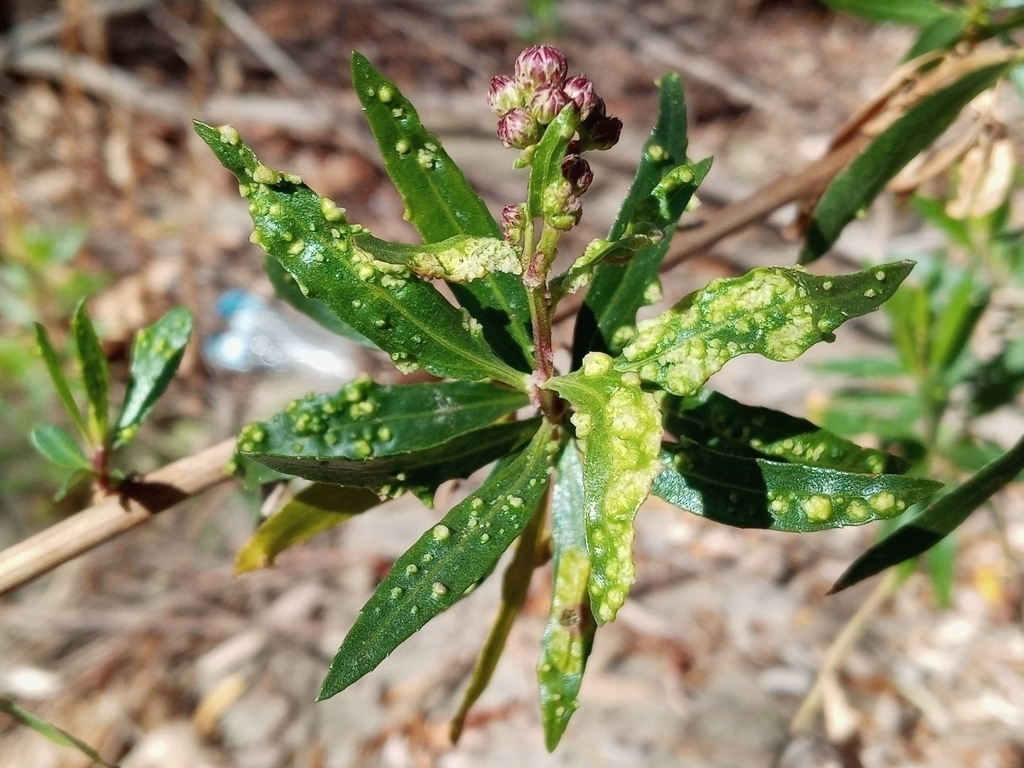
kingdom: Animalia
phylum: Arthropoda
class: Arachnida
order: Trombidiformes
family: Eriophyidae
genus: Aceria
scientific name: Aceria
